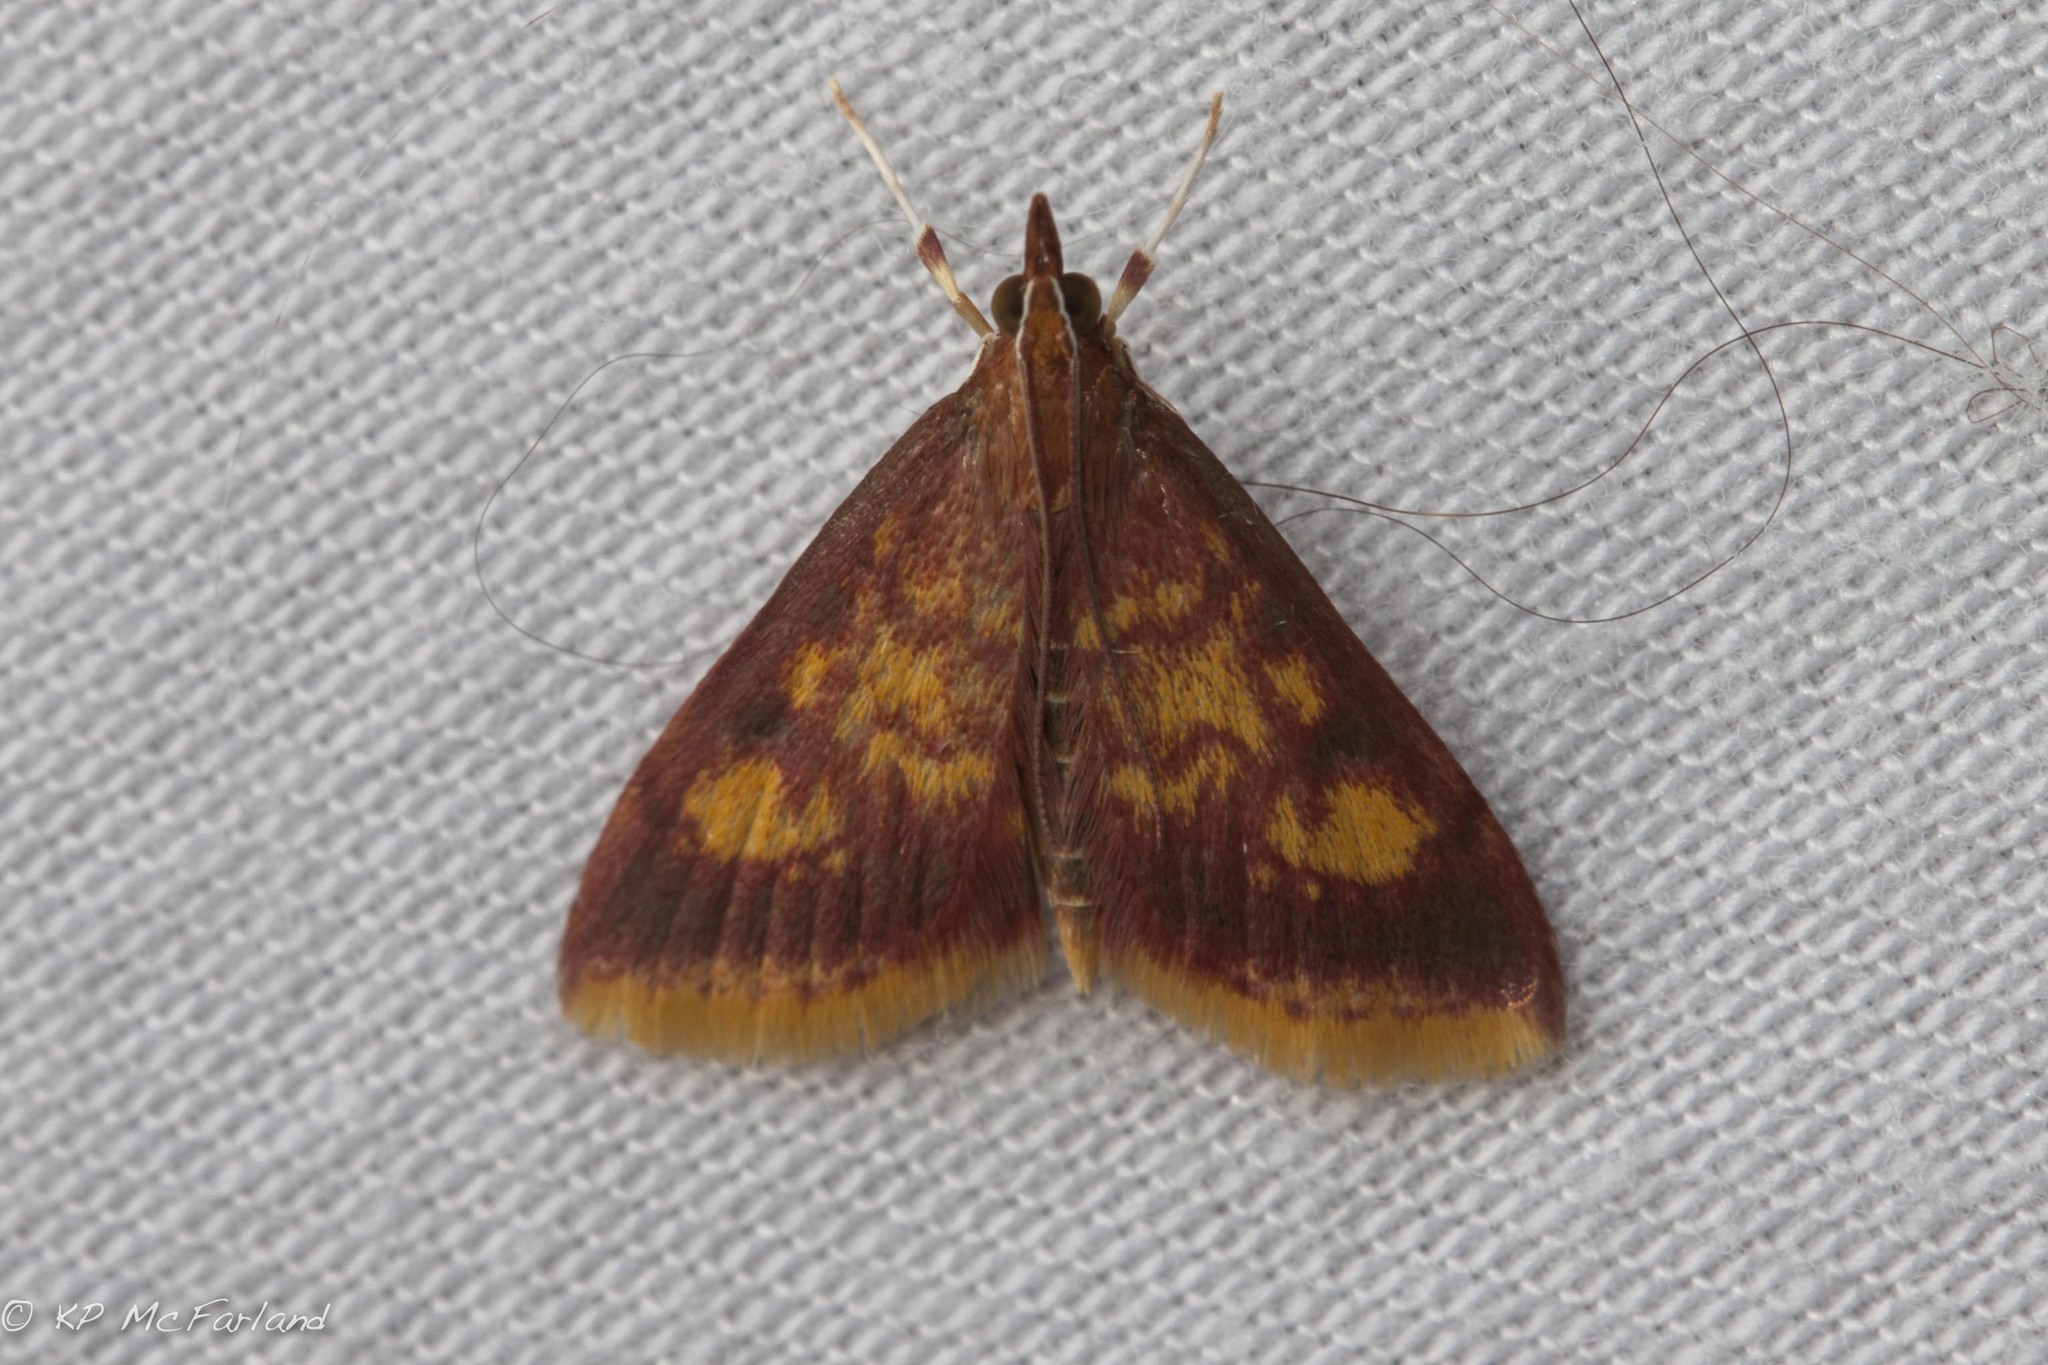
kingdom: Animalia
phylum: Arthropoda
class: Insecta
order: Lepidoptera
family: Crambidae
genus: Pyrausta
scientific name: Pyrausta acrionalis
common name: Mint-loving pyrausta moth
